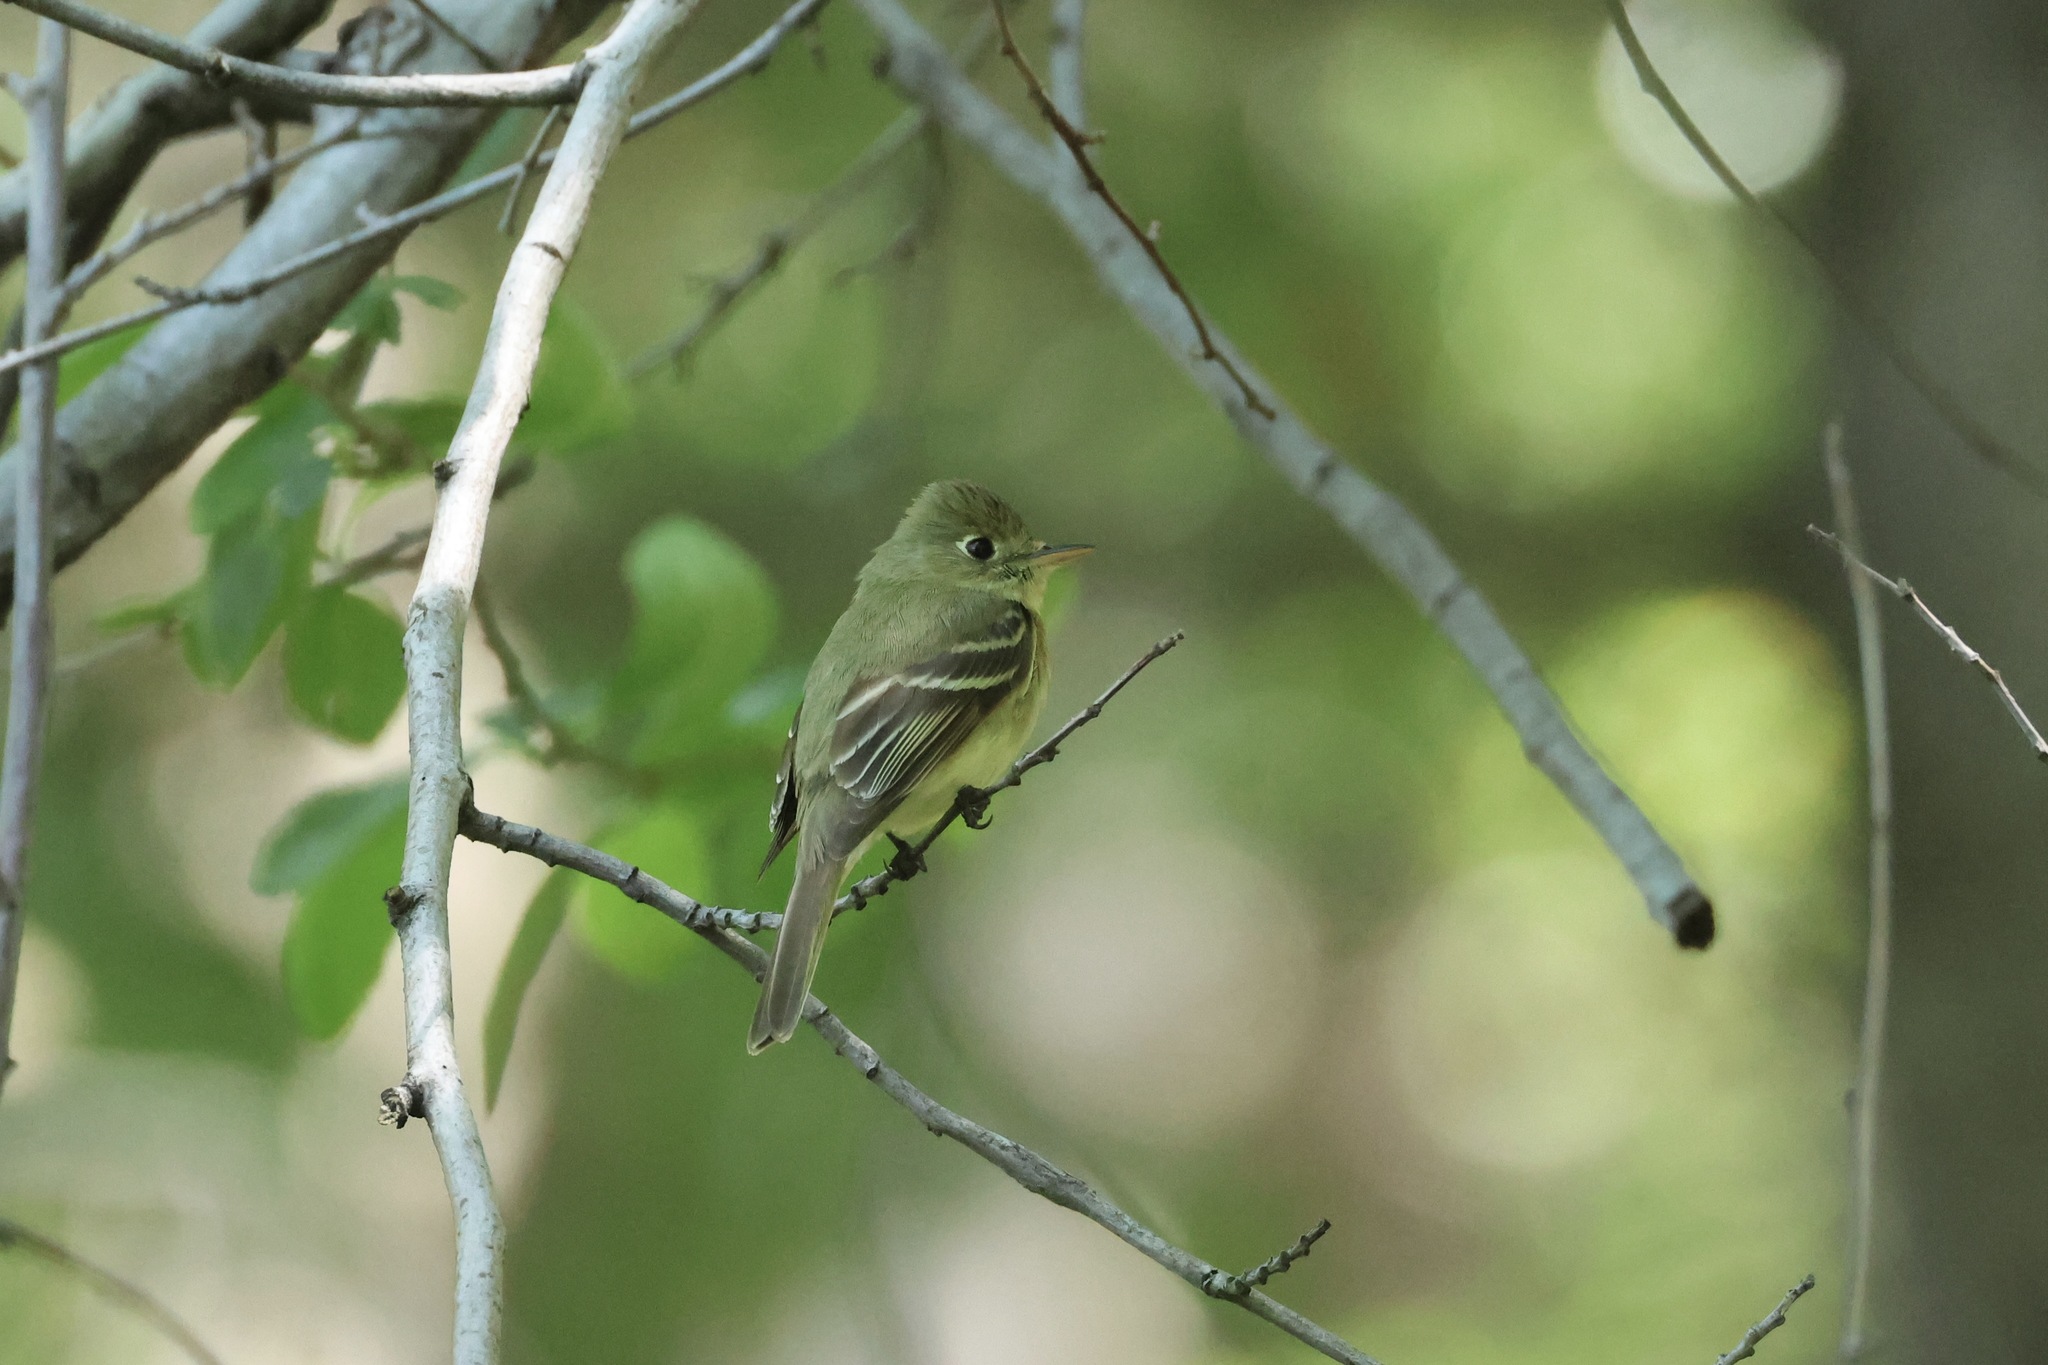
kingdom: Animalia
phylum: Chordata
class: Aves
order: Passeriformes
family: Tyrannidae
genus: Empidonax
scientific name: Empidonax difficilis
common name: Pacific-slope flycatcher
